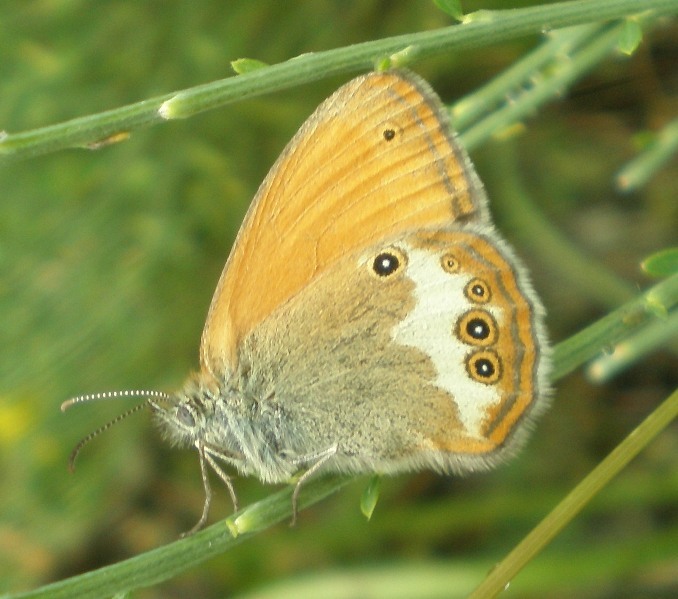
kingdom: Animalia
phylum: Arthropoda
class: Insecta
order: Lepidoptera
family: Nymphalidae
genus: Coenonympha
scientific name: Coenonympha arcania
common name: Pearly heath
